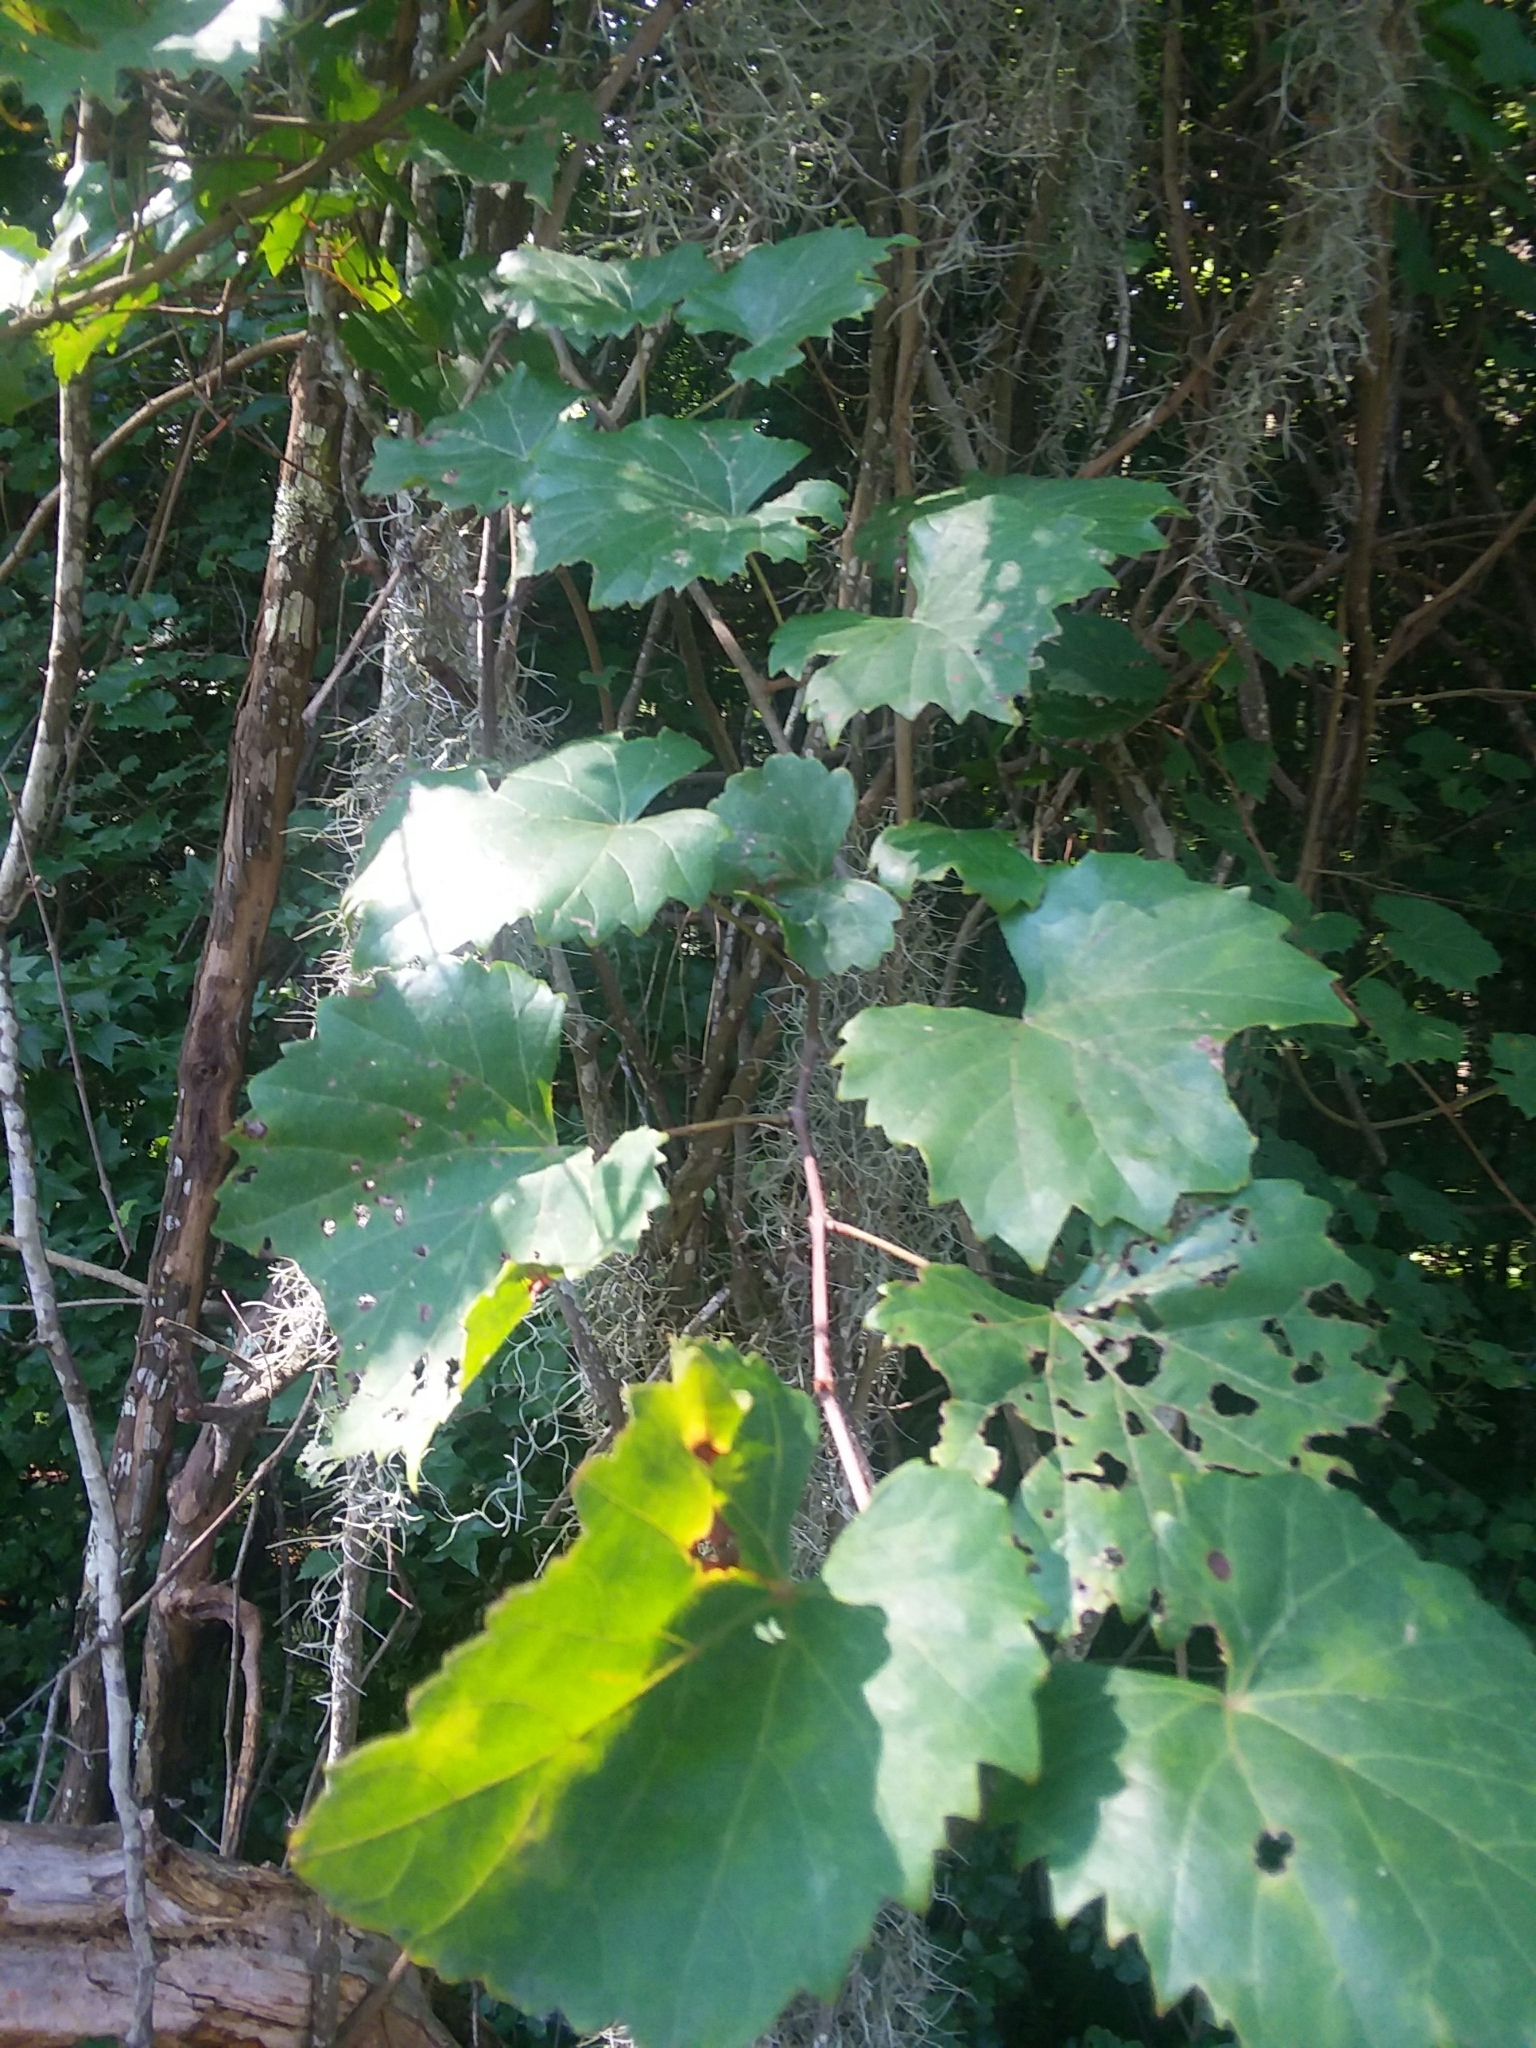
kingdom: Plantae
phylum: Tracheophyta
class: Magnoliopsida
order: Vitales
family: Vitaceae
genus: Vitis
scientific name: Vitis rotundifolia
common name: Muscadine grape
